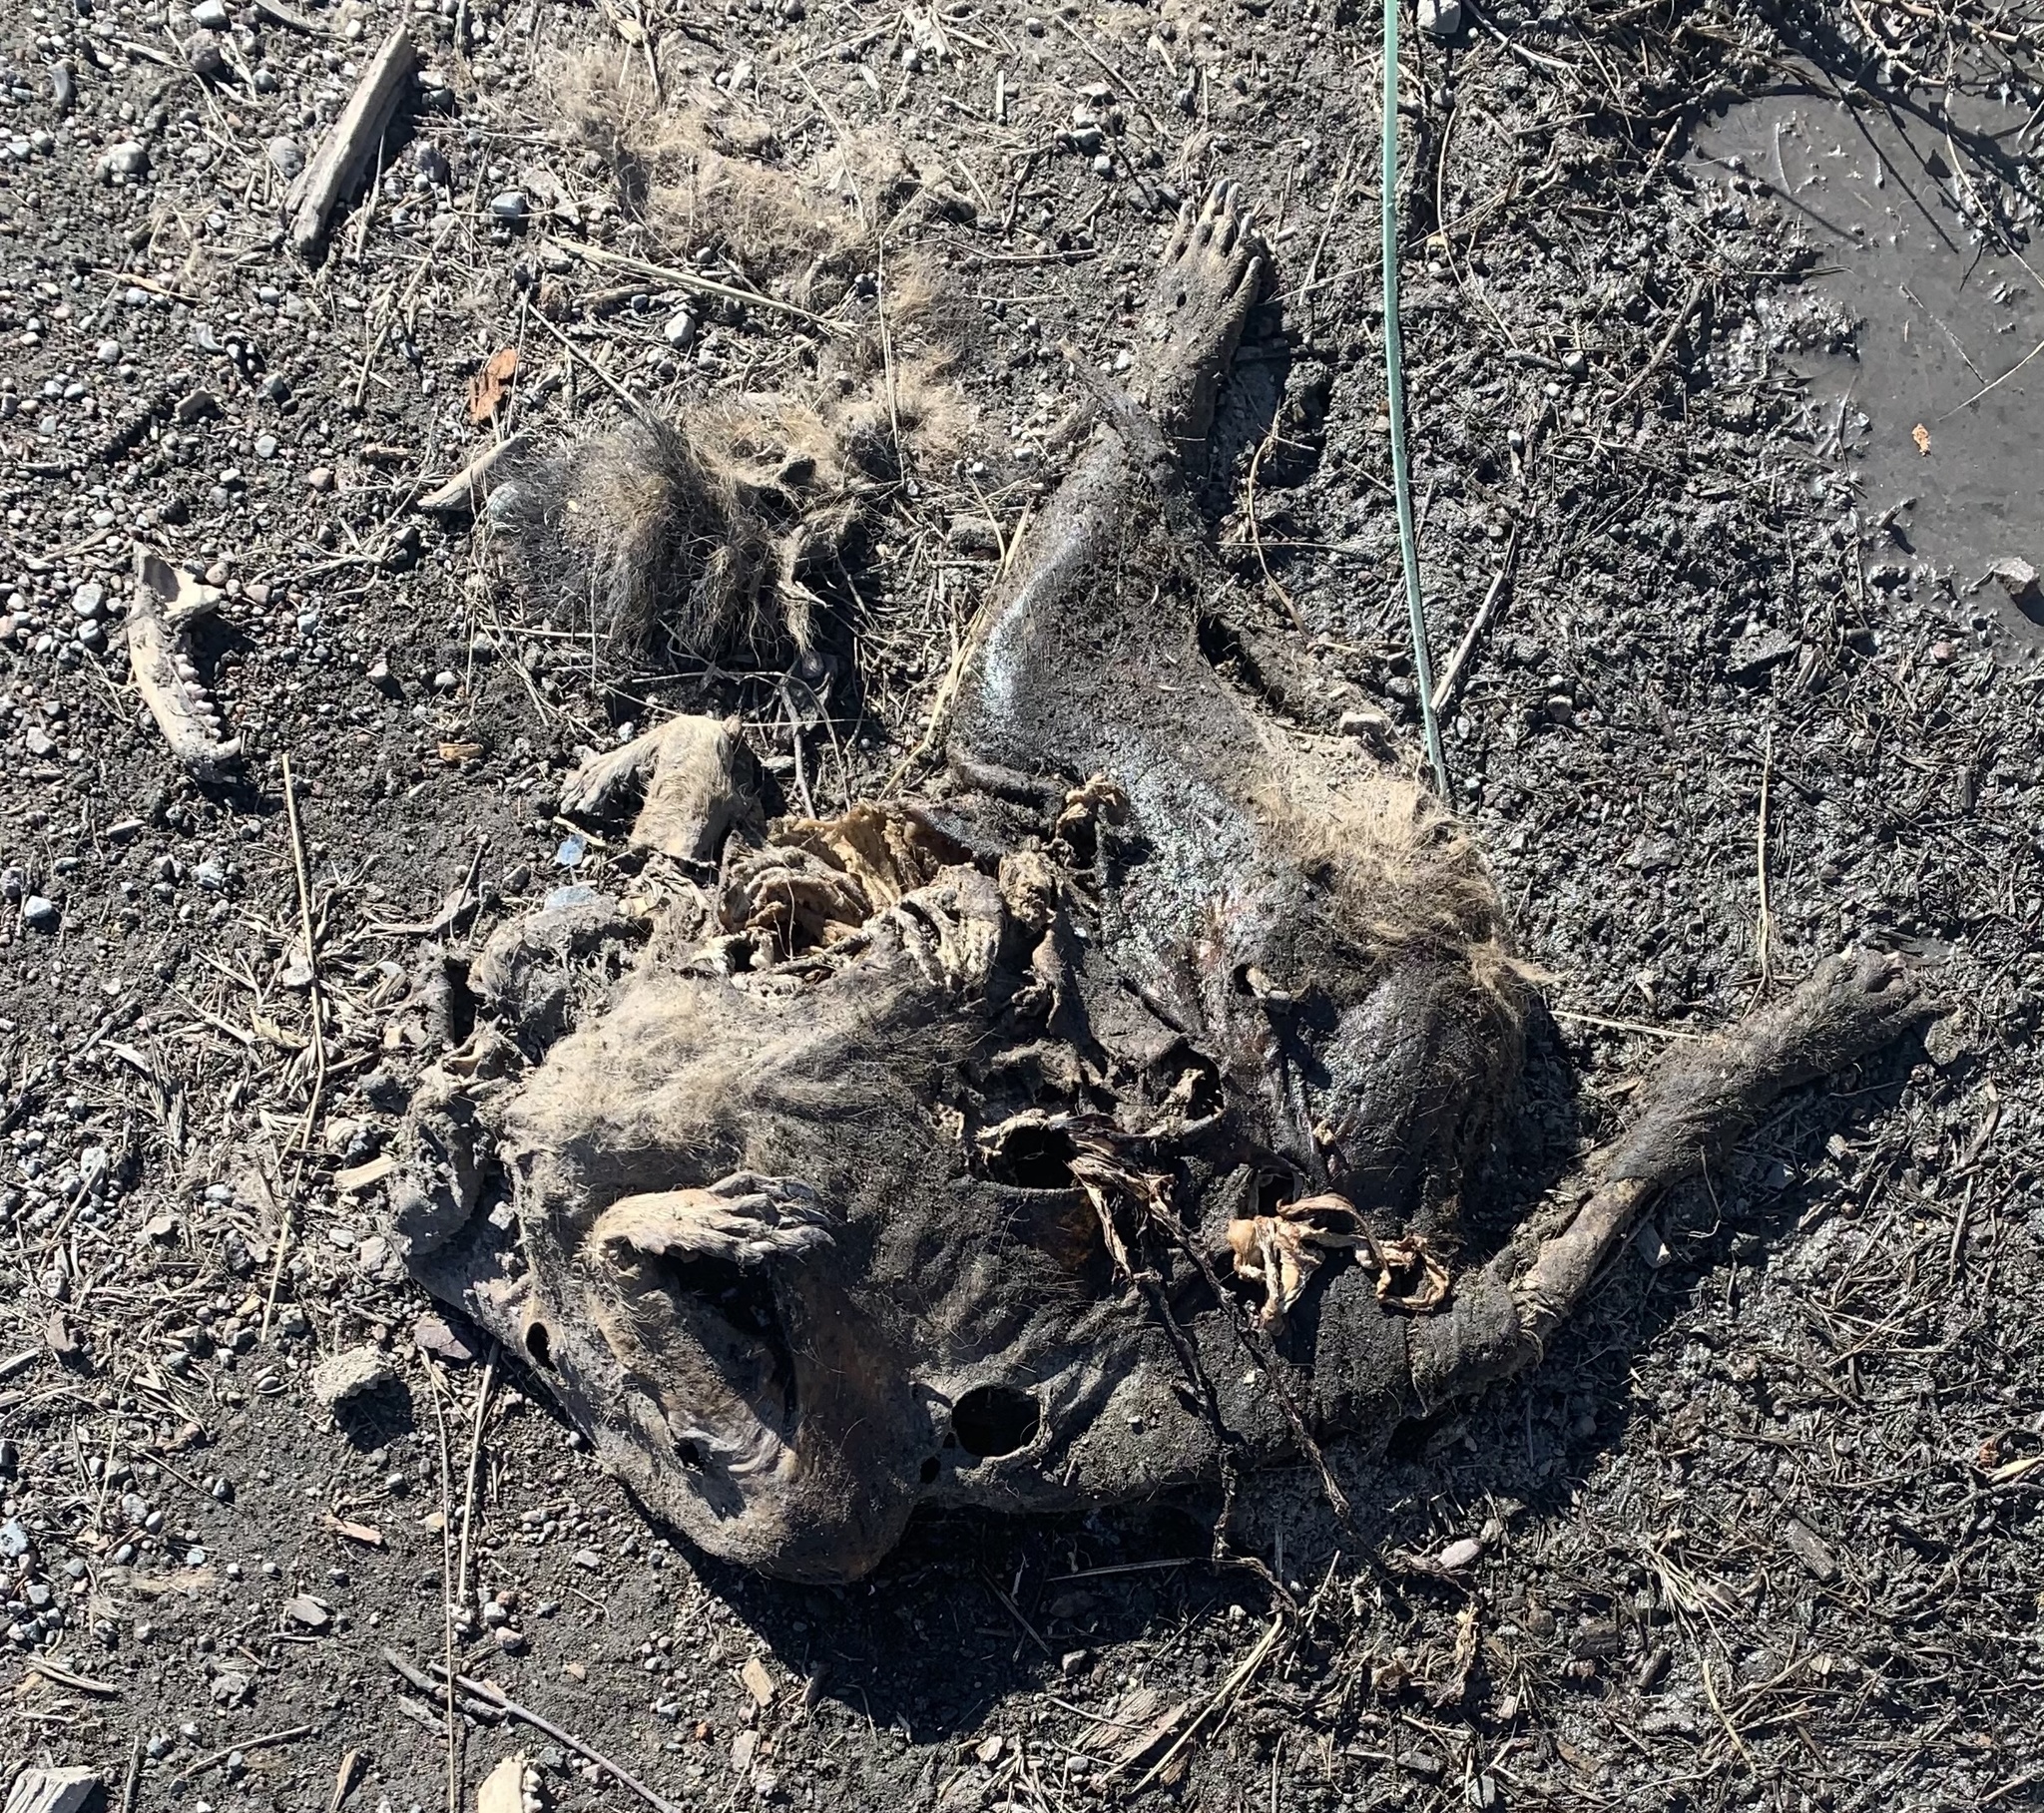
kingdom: Animalia
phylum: Chordata
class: Mammalia
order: Carnivora
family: Procyonidae
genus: Procyon
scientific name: Procyon lotor
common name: Raccoon
